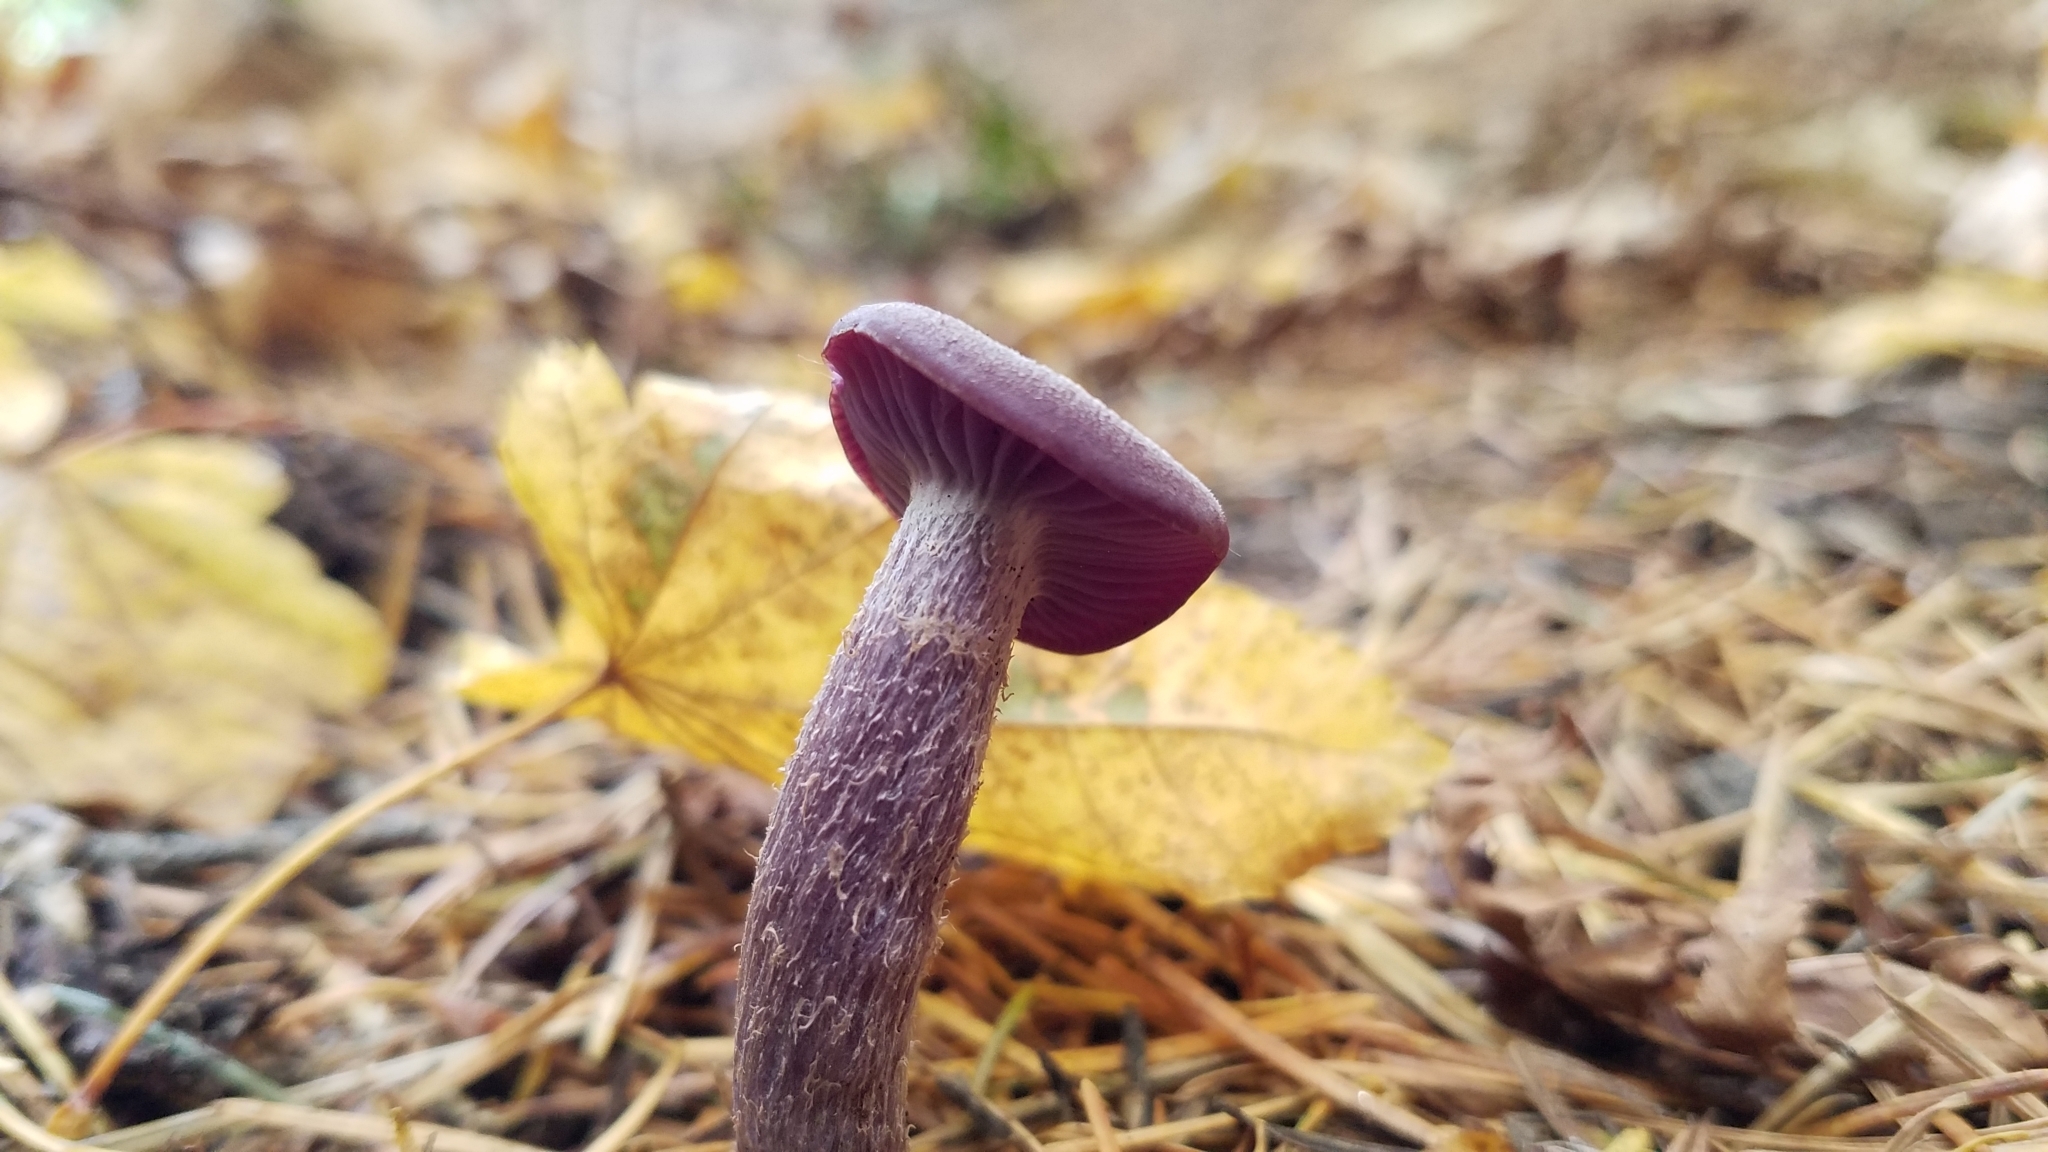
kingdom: Fungi
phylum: Basidiomycota
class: Agaricomycetes
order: Agaricales
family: Hydnangiaceae
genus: Laccaria
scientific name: Laccaria amethysteo-occidentalis
